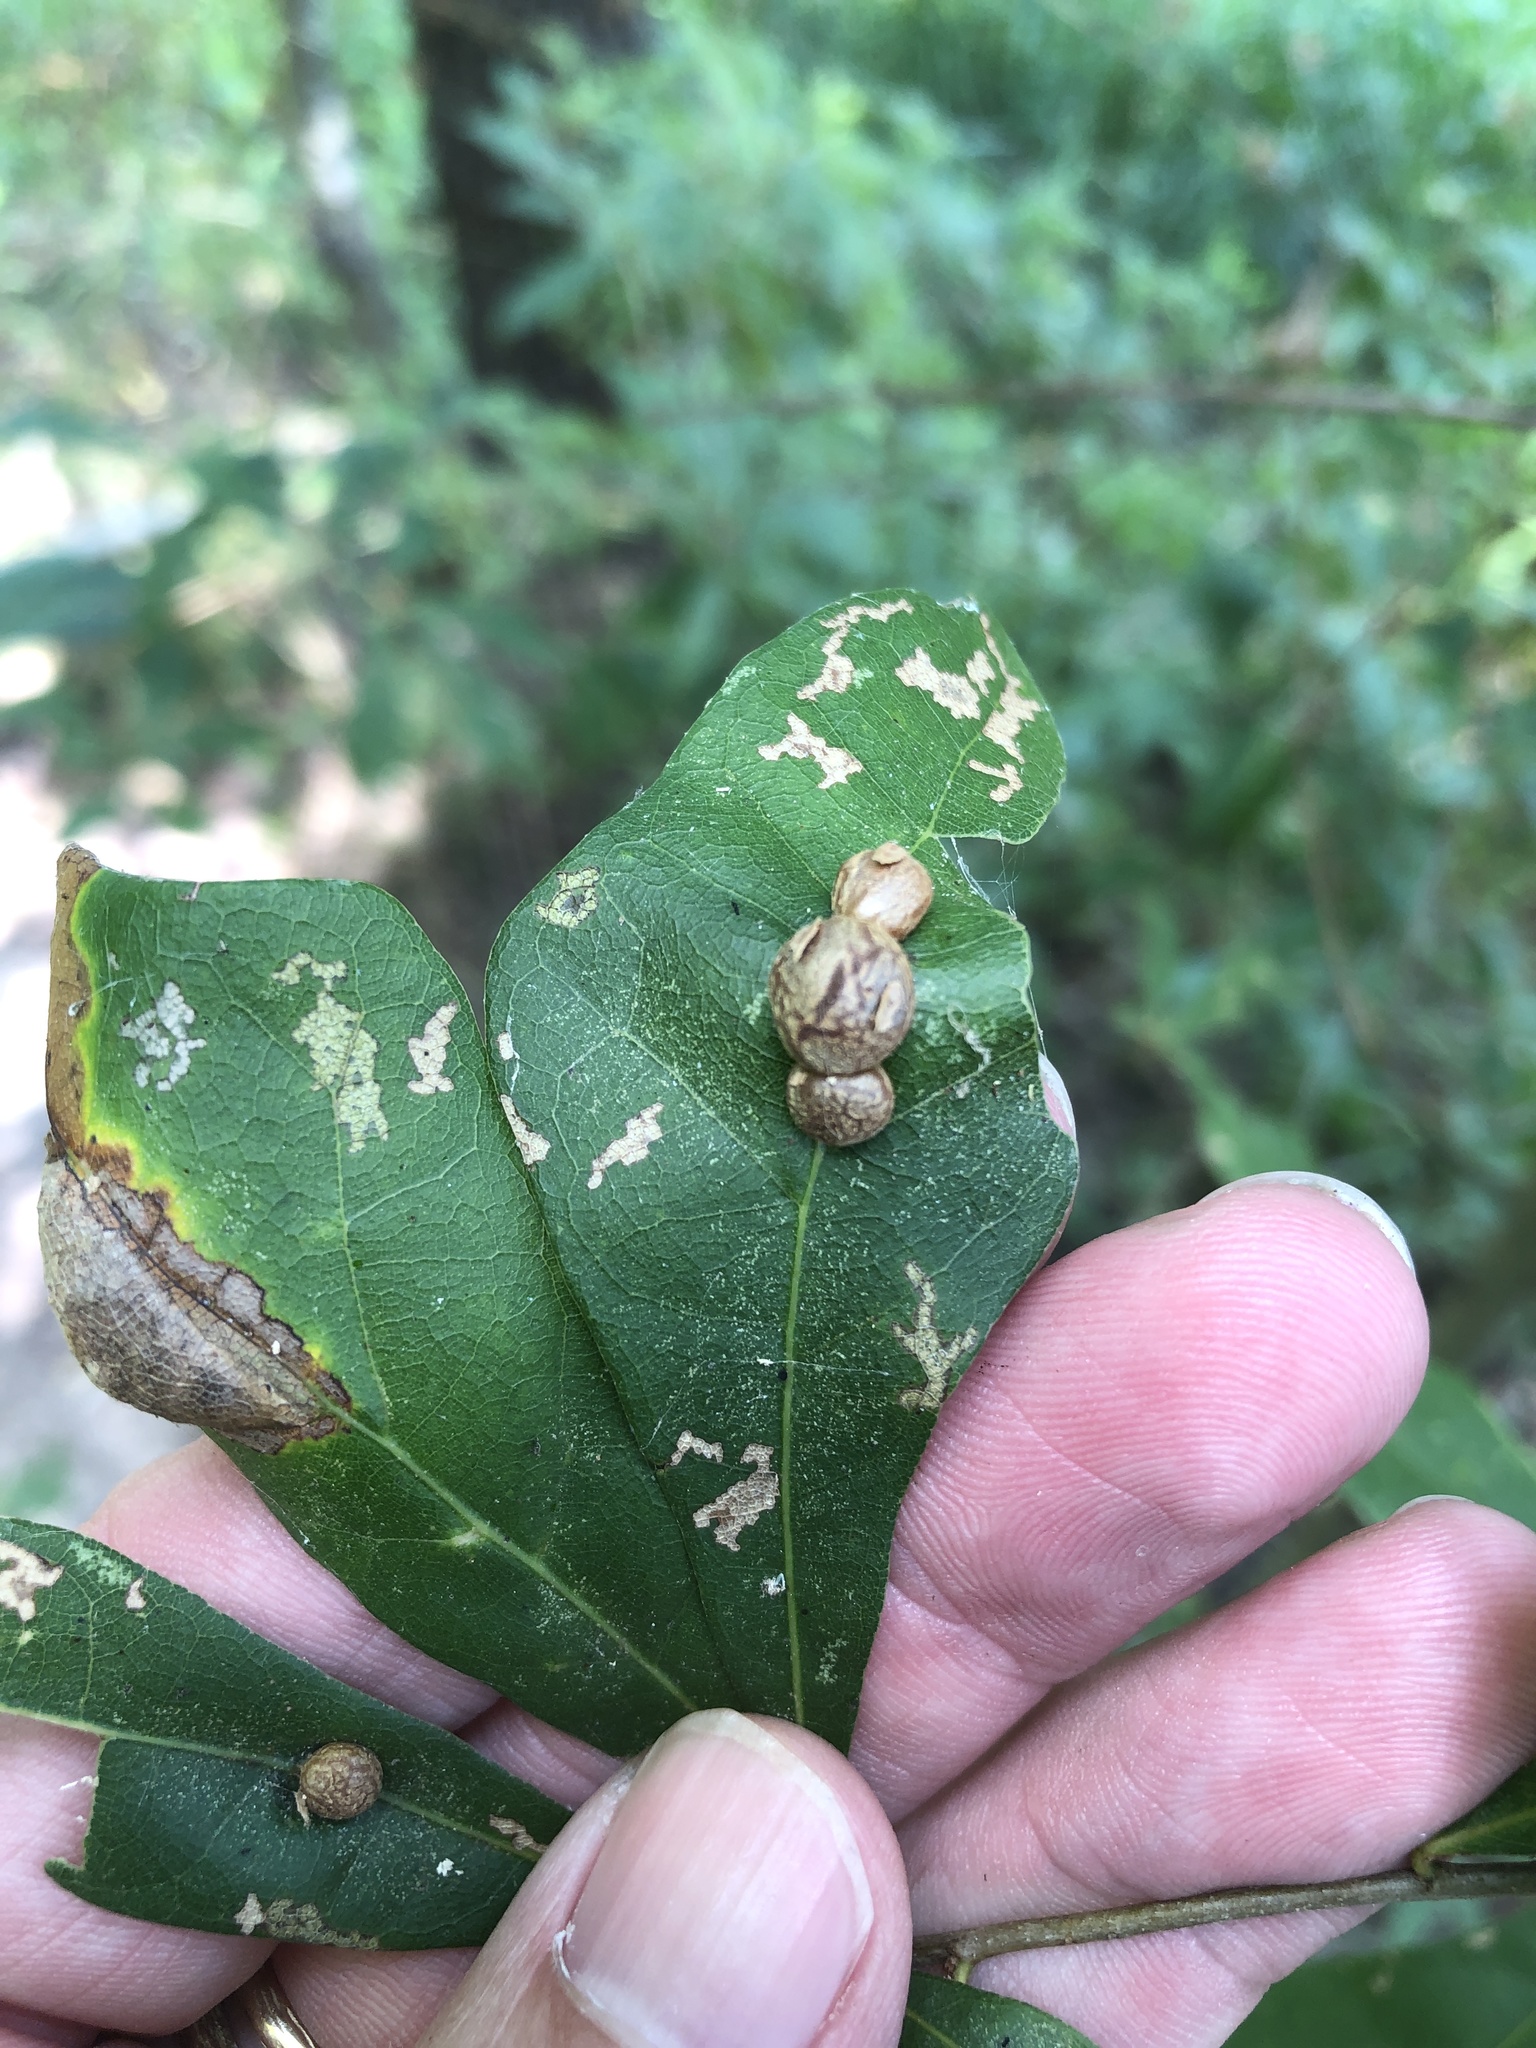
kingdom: Animalia
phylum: Arthropoda
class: Insecta
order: Diptera
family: Cecidomyiidae
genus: Polystepha
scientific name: Polystepha pilulae
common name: Oak leaf gall midge
